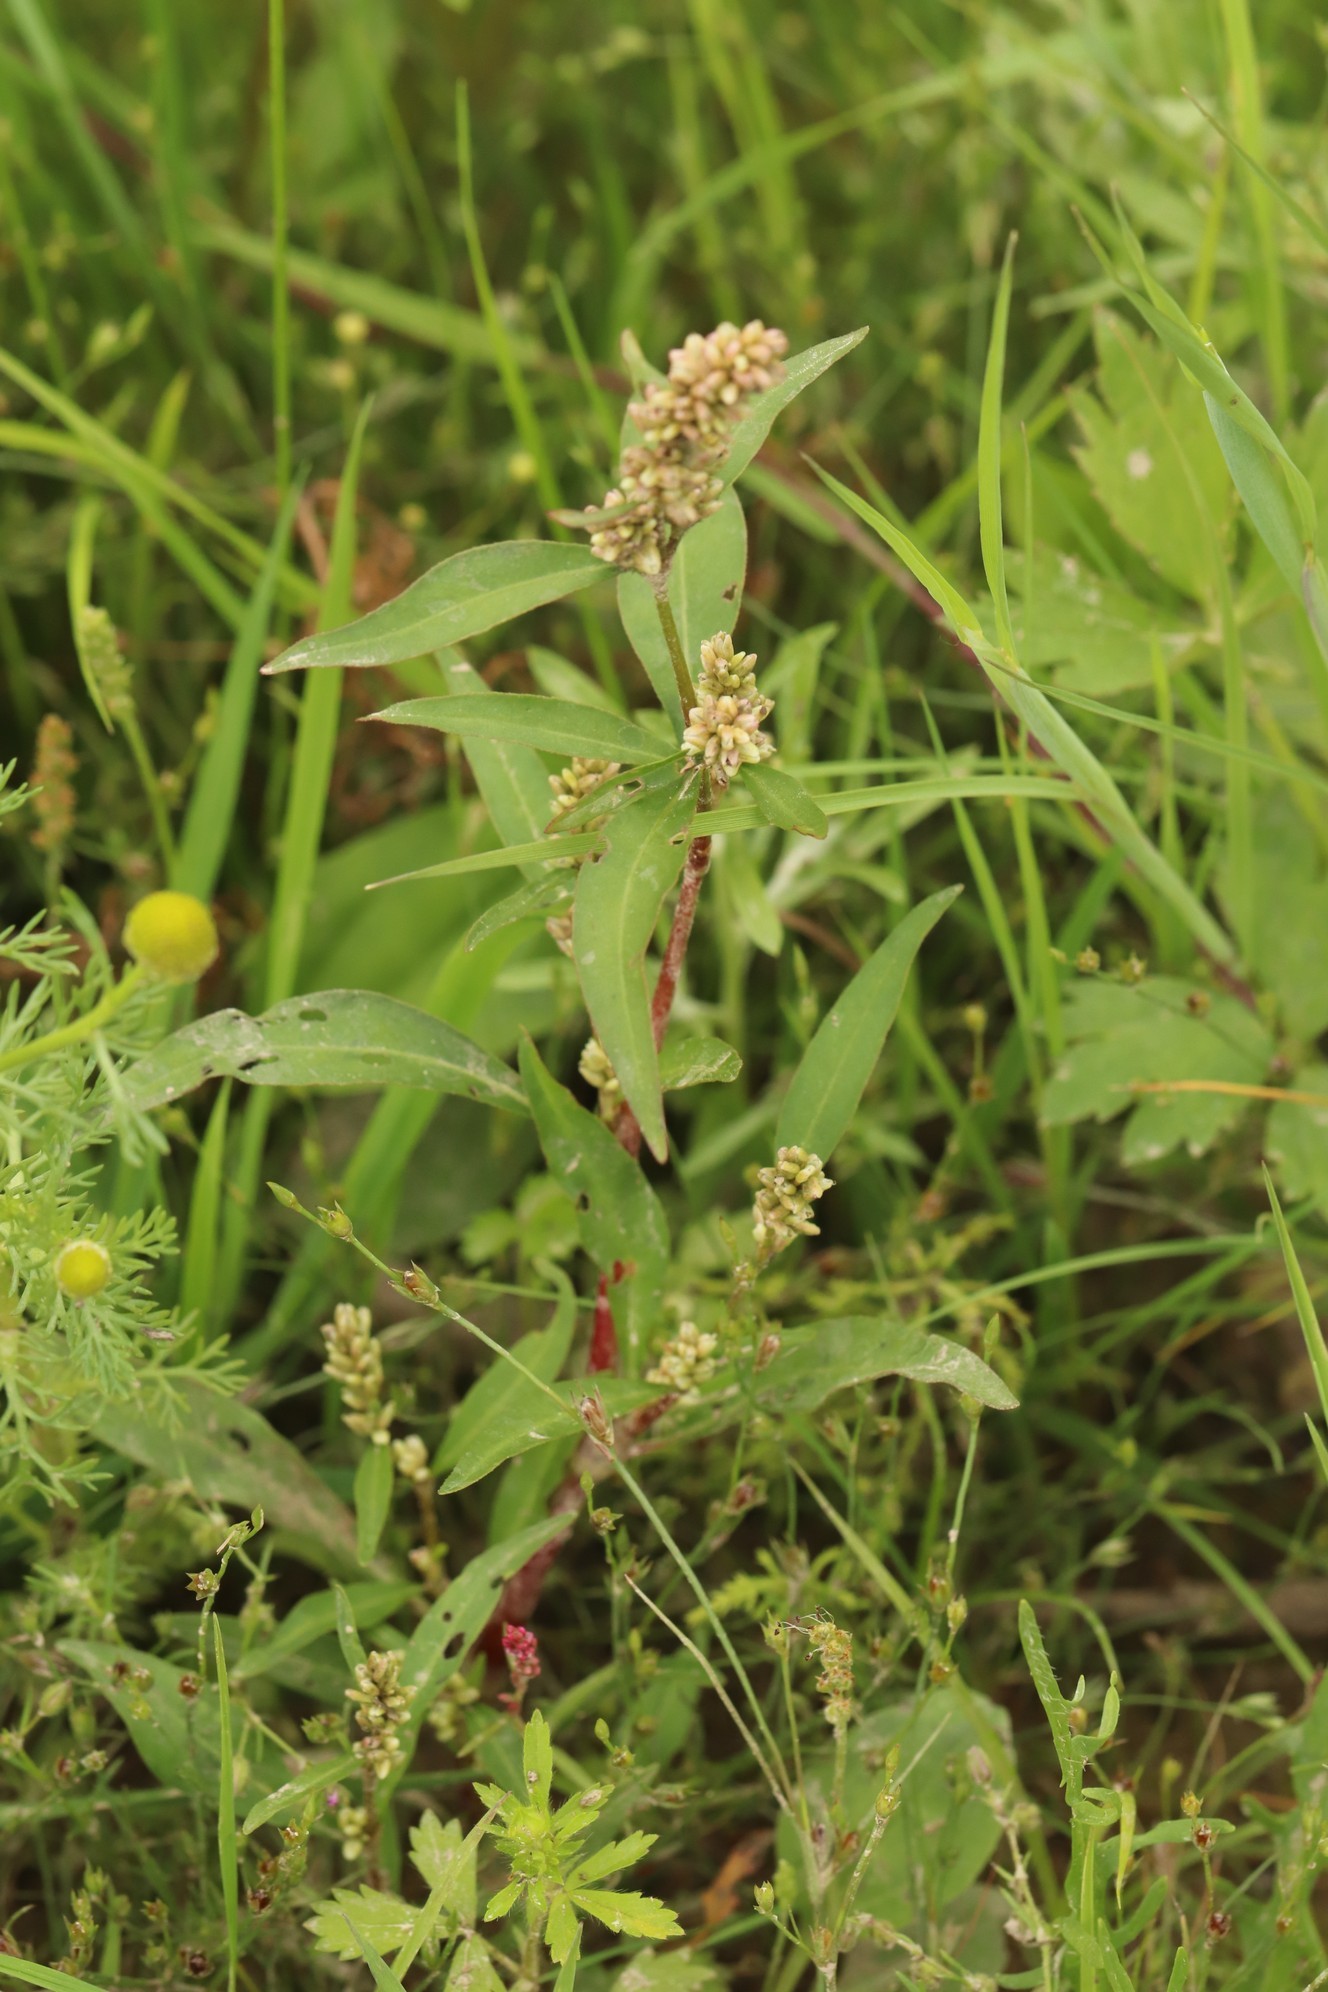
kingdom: Plantae
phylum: Tracheophyta
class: Magnoliopsida
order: Caryophyllales
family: Polygonaceae
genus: Persicaria
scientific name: Persicaria lapathifolia
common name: Curlytop knotweed
